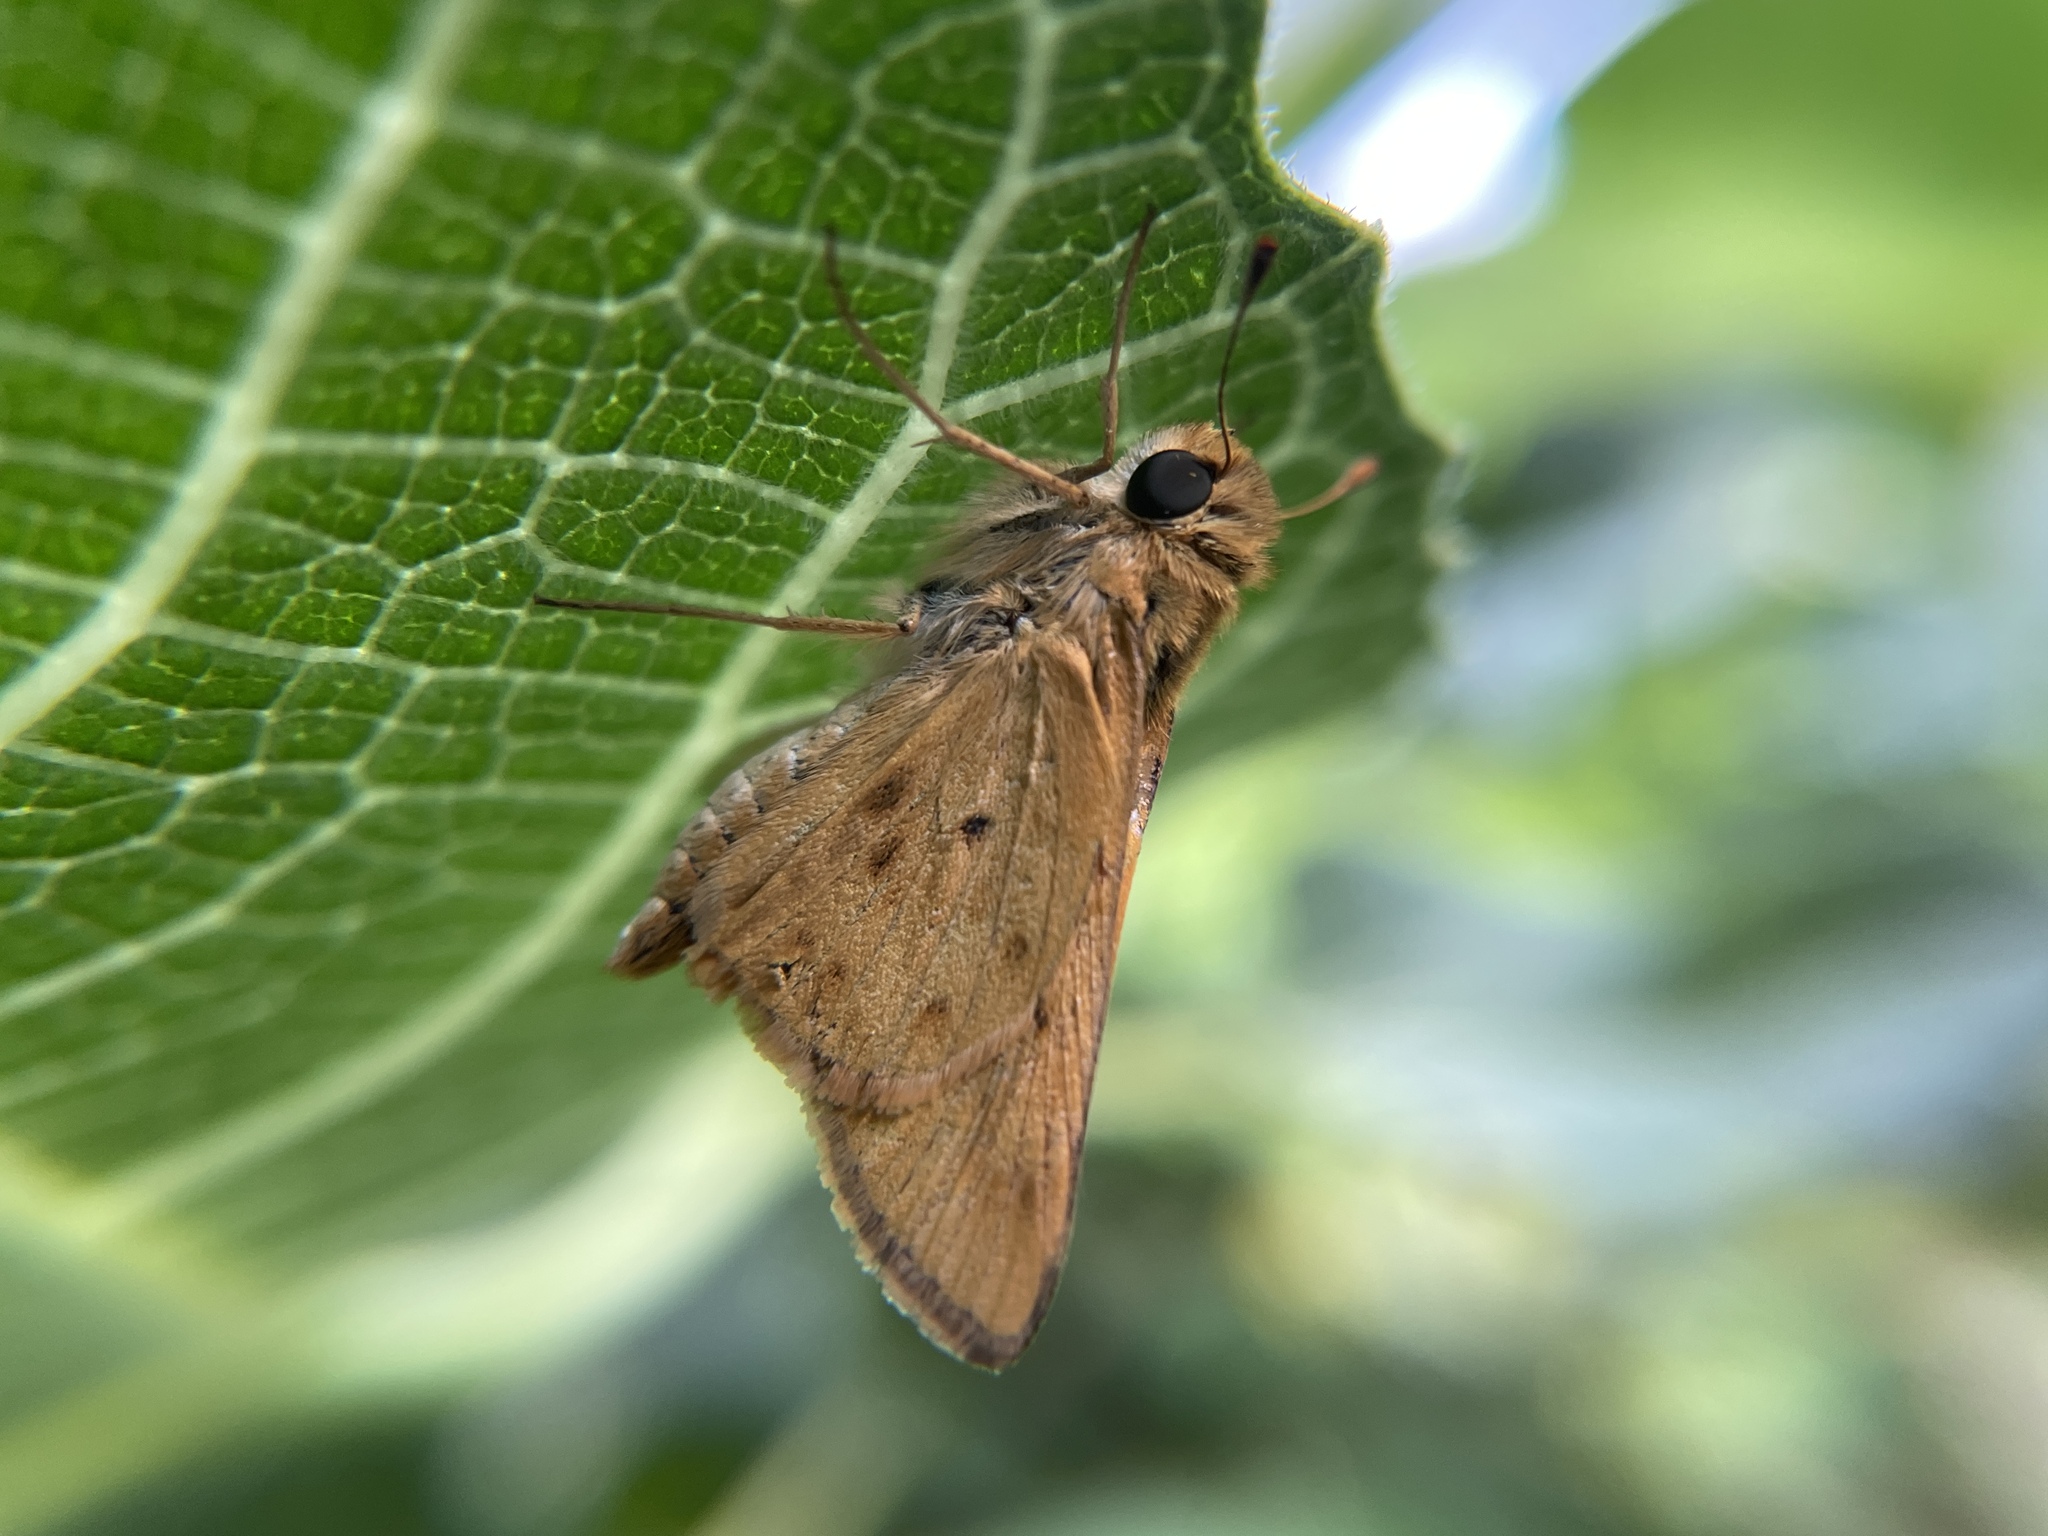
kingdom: Animalia
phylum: Arthropoda
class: Insecta
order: Lepidoptera
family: Hesperiidae
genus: Hylephila
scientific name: Hylephila phyleus
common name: Fiery skipper
